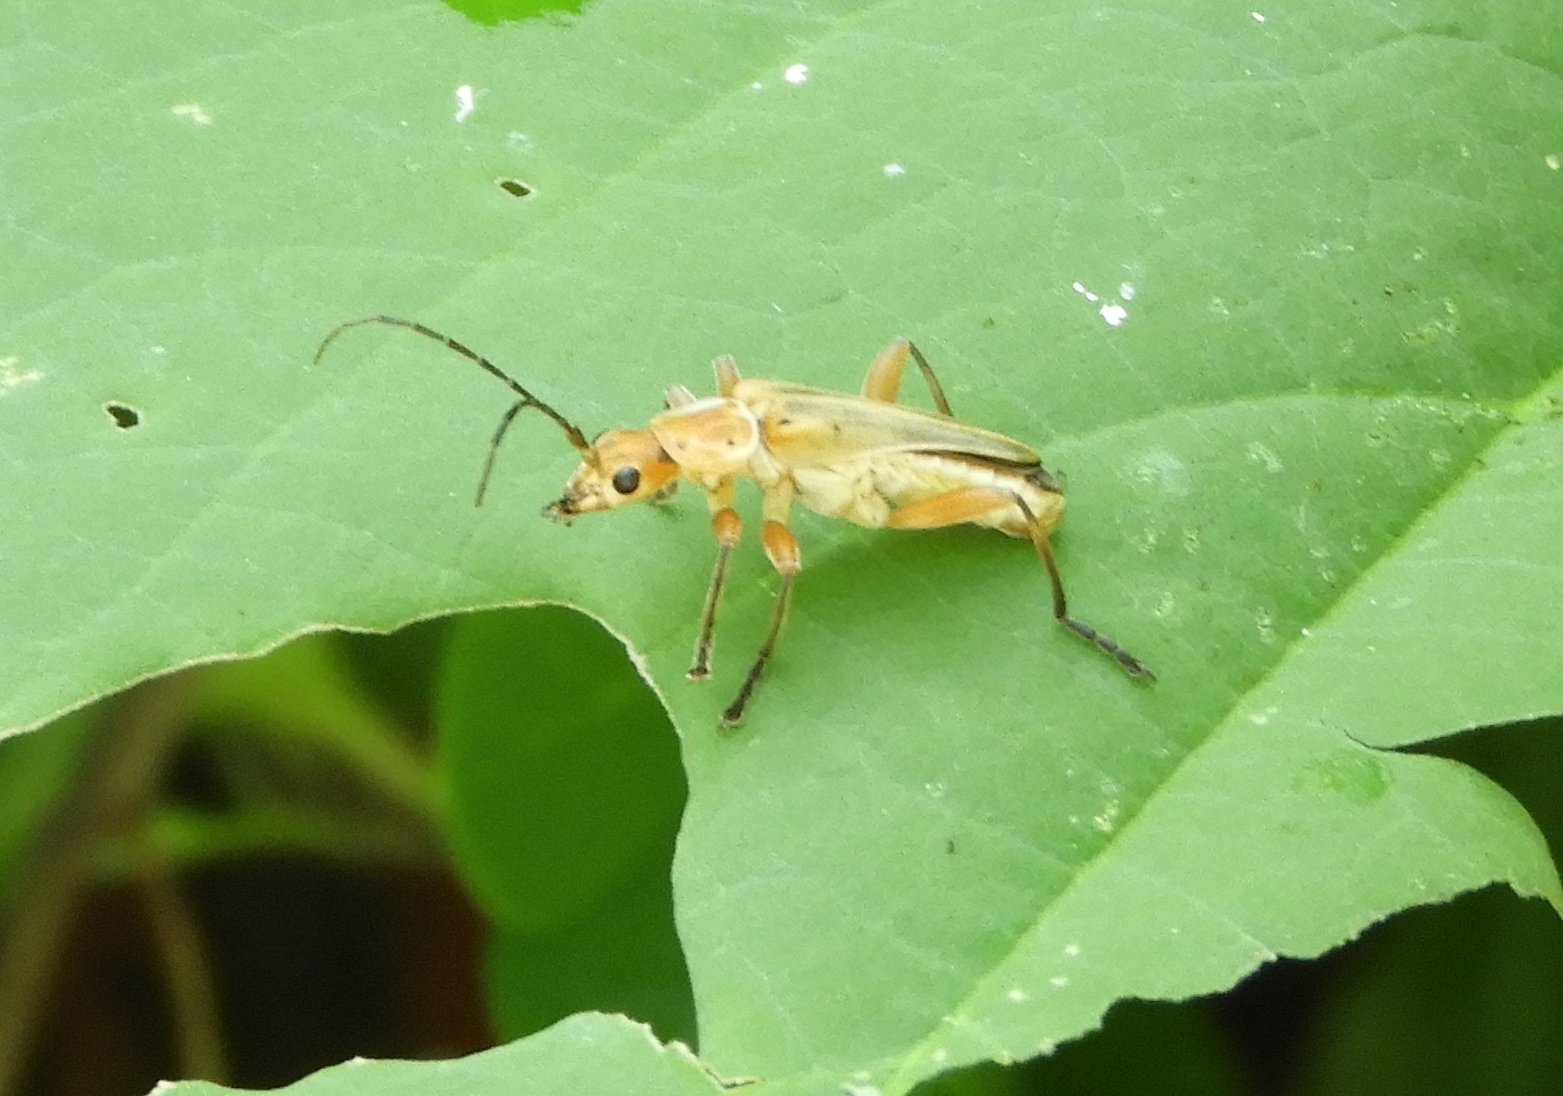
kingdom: Animalia
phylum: Arthropoda
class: Insecta
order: Coleoptera
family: Cantharidae
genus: Chauliognathus
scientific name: Chauliognathus
